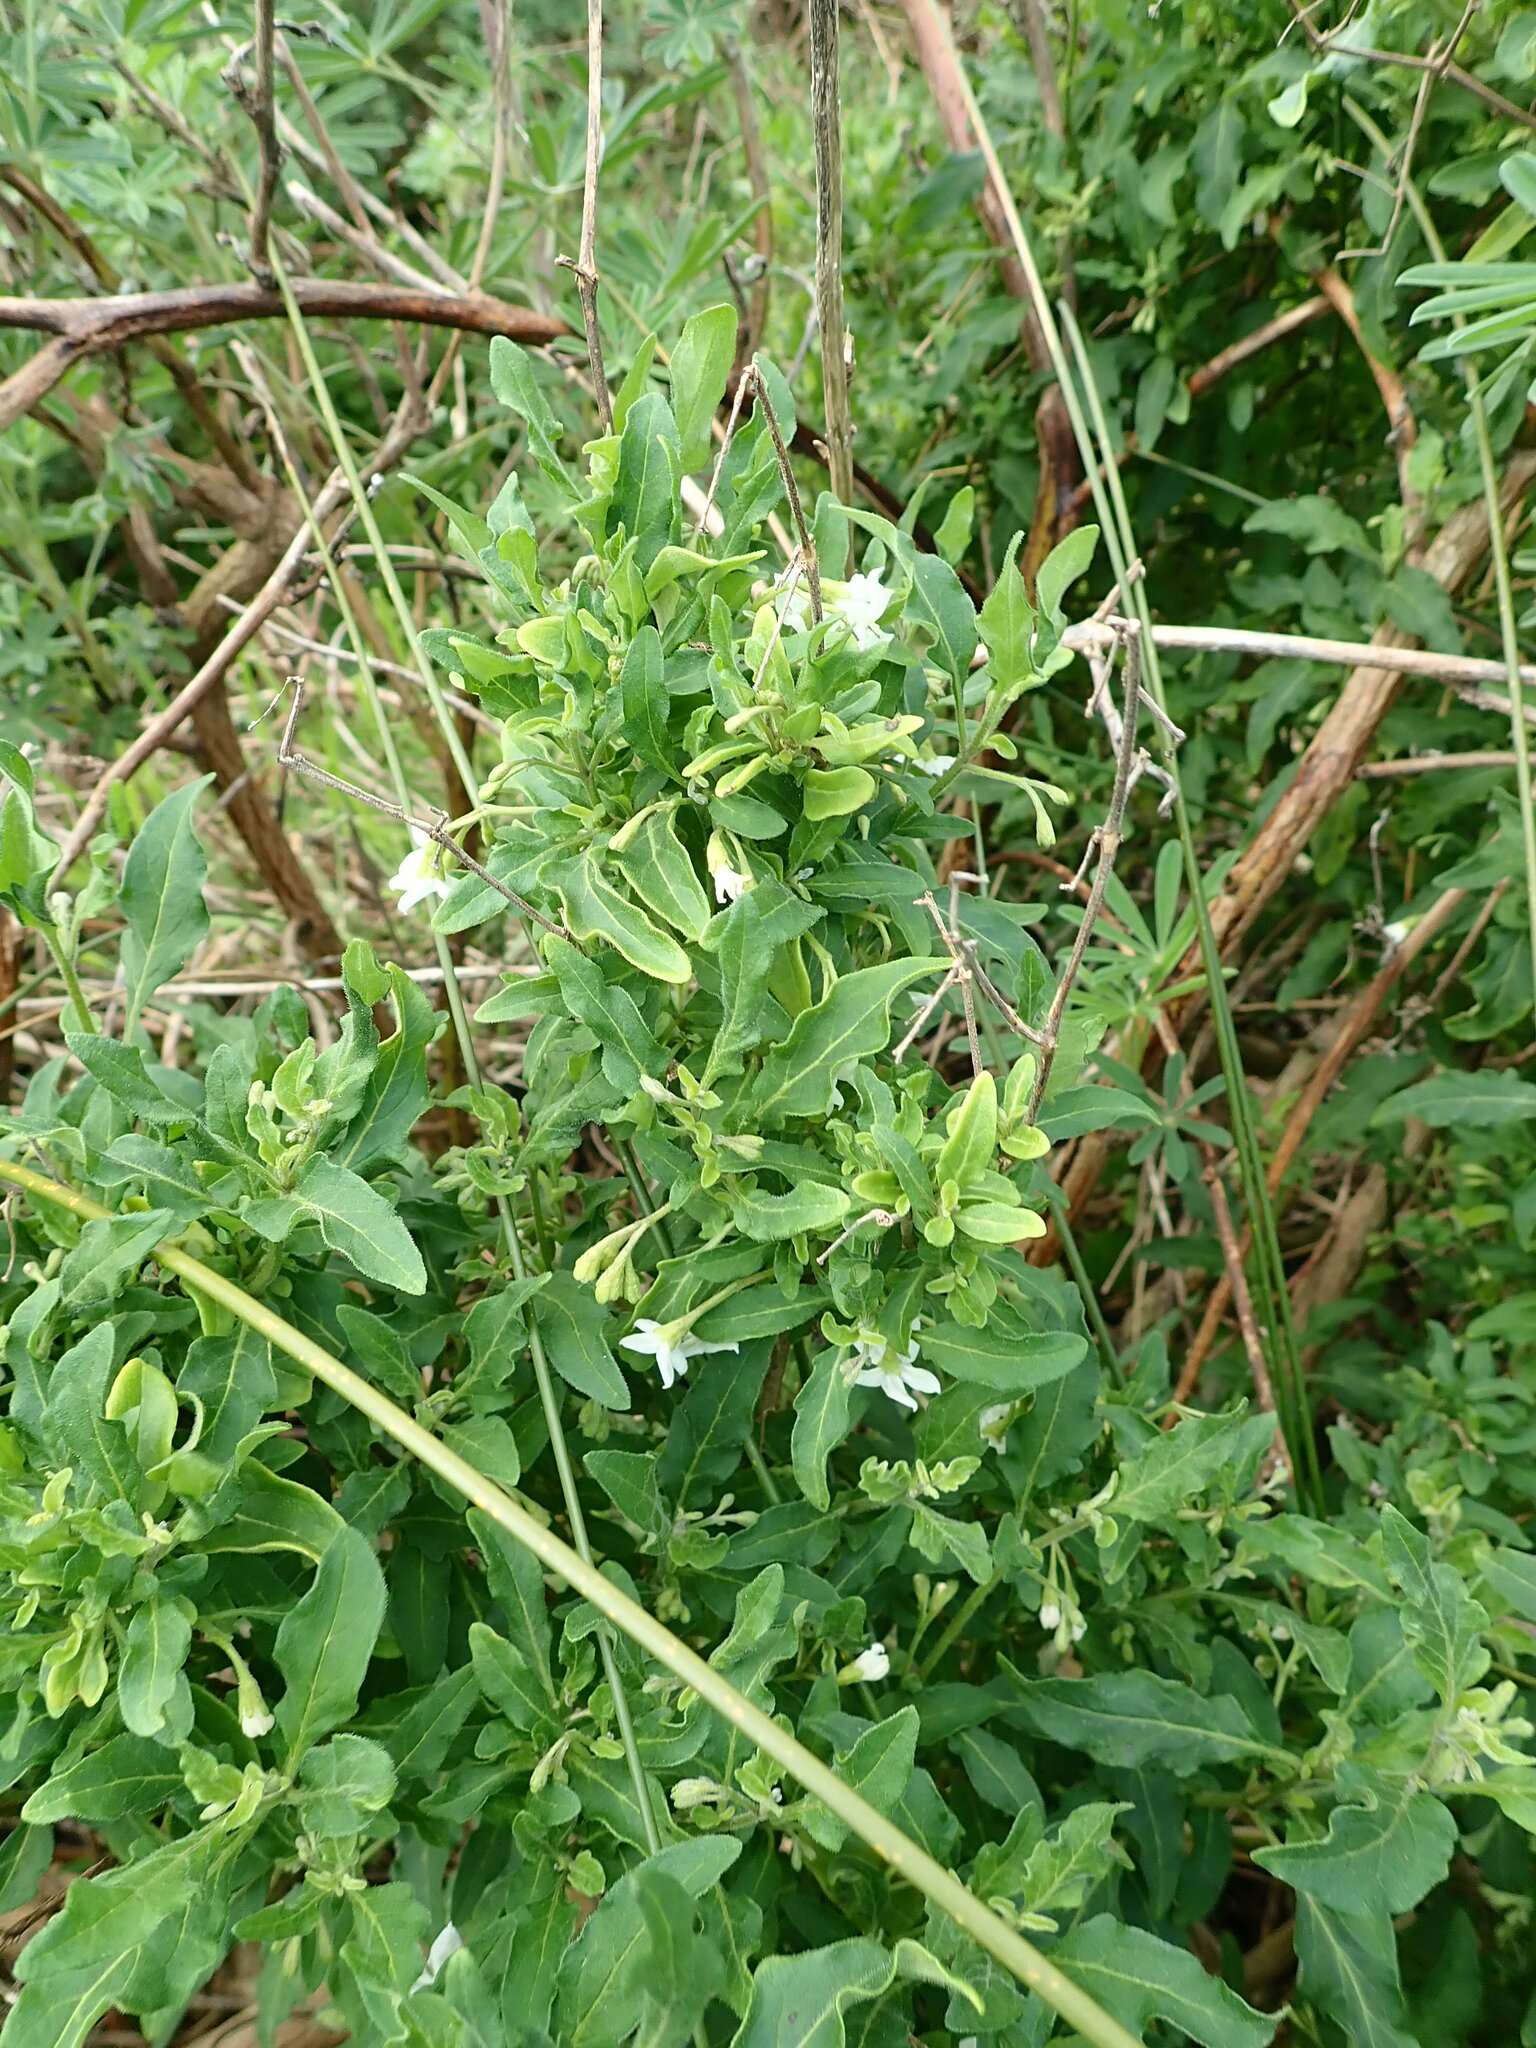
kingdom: Plantae
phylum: Tracheophyta
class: Magnoliopsida
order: Solanales
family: Solanaceae
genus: Solanum
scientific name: Solanum chenopodioides
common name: Tall nightshade
